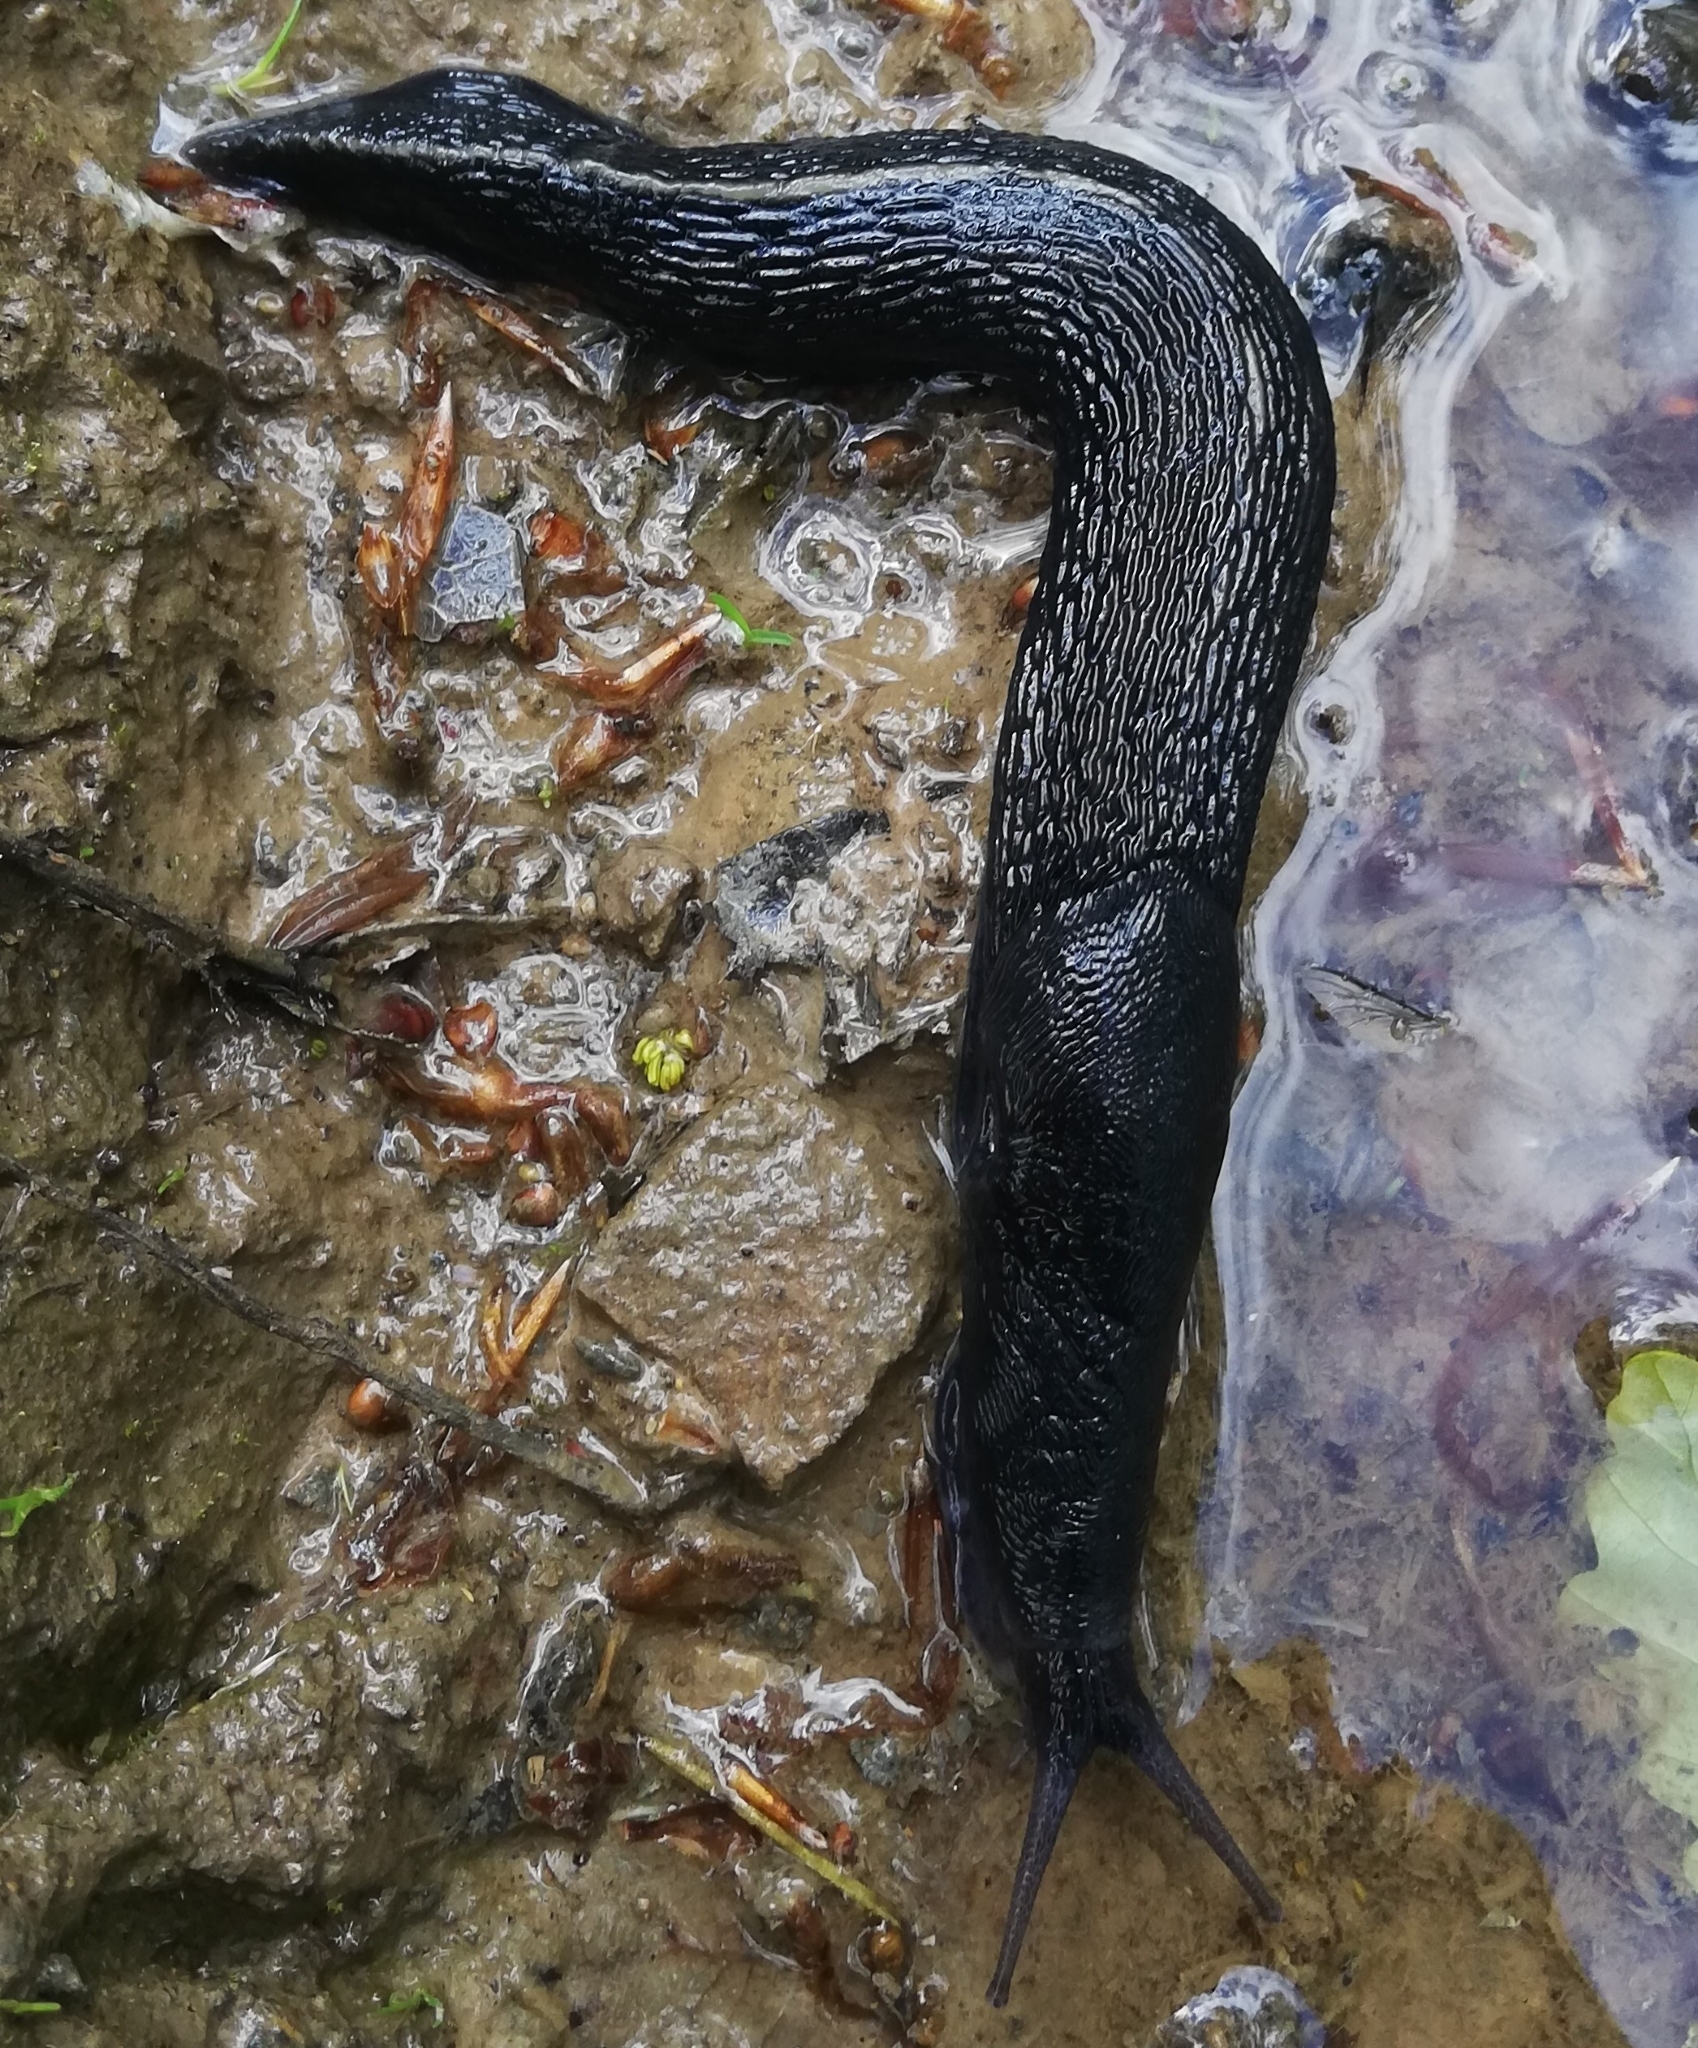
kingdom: Animalia
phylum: Mollusca
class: Gastropoda
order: Stylommatophora
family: Limacidae
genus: Limax
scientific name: Limax cinereoniger
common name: Ash-black slug
